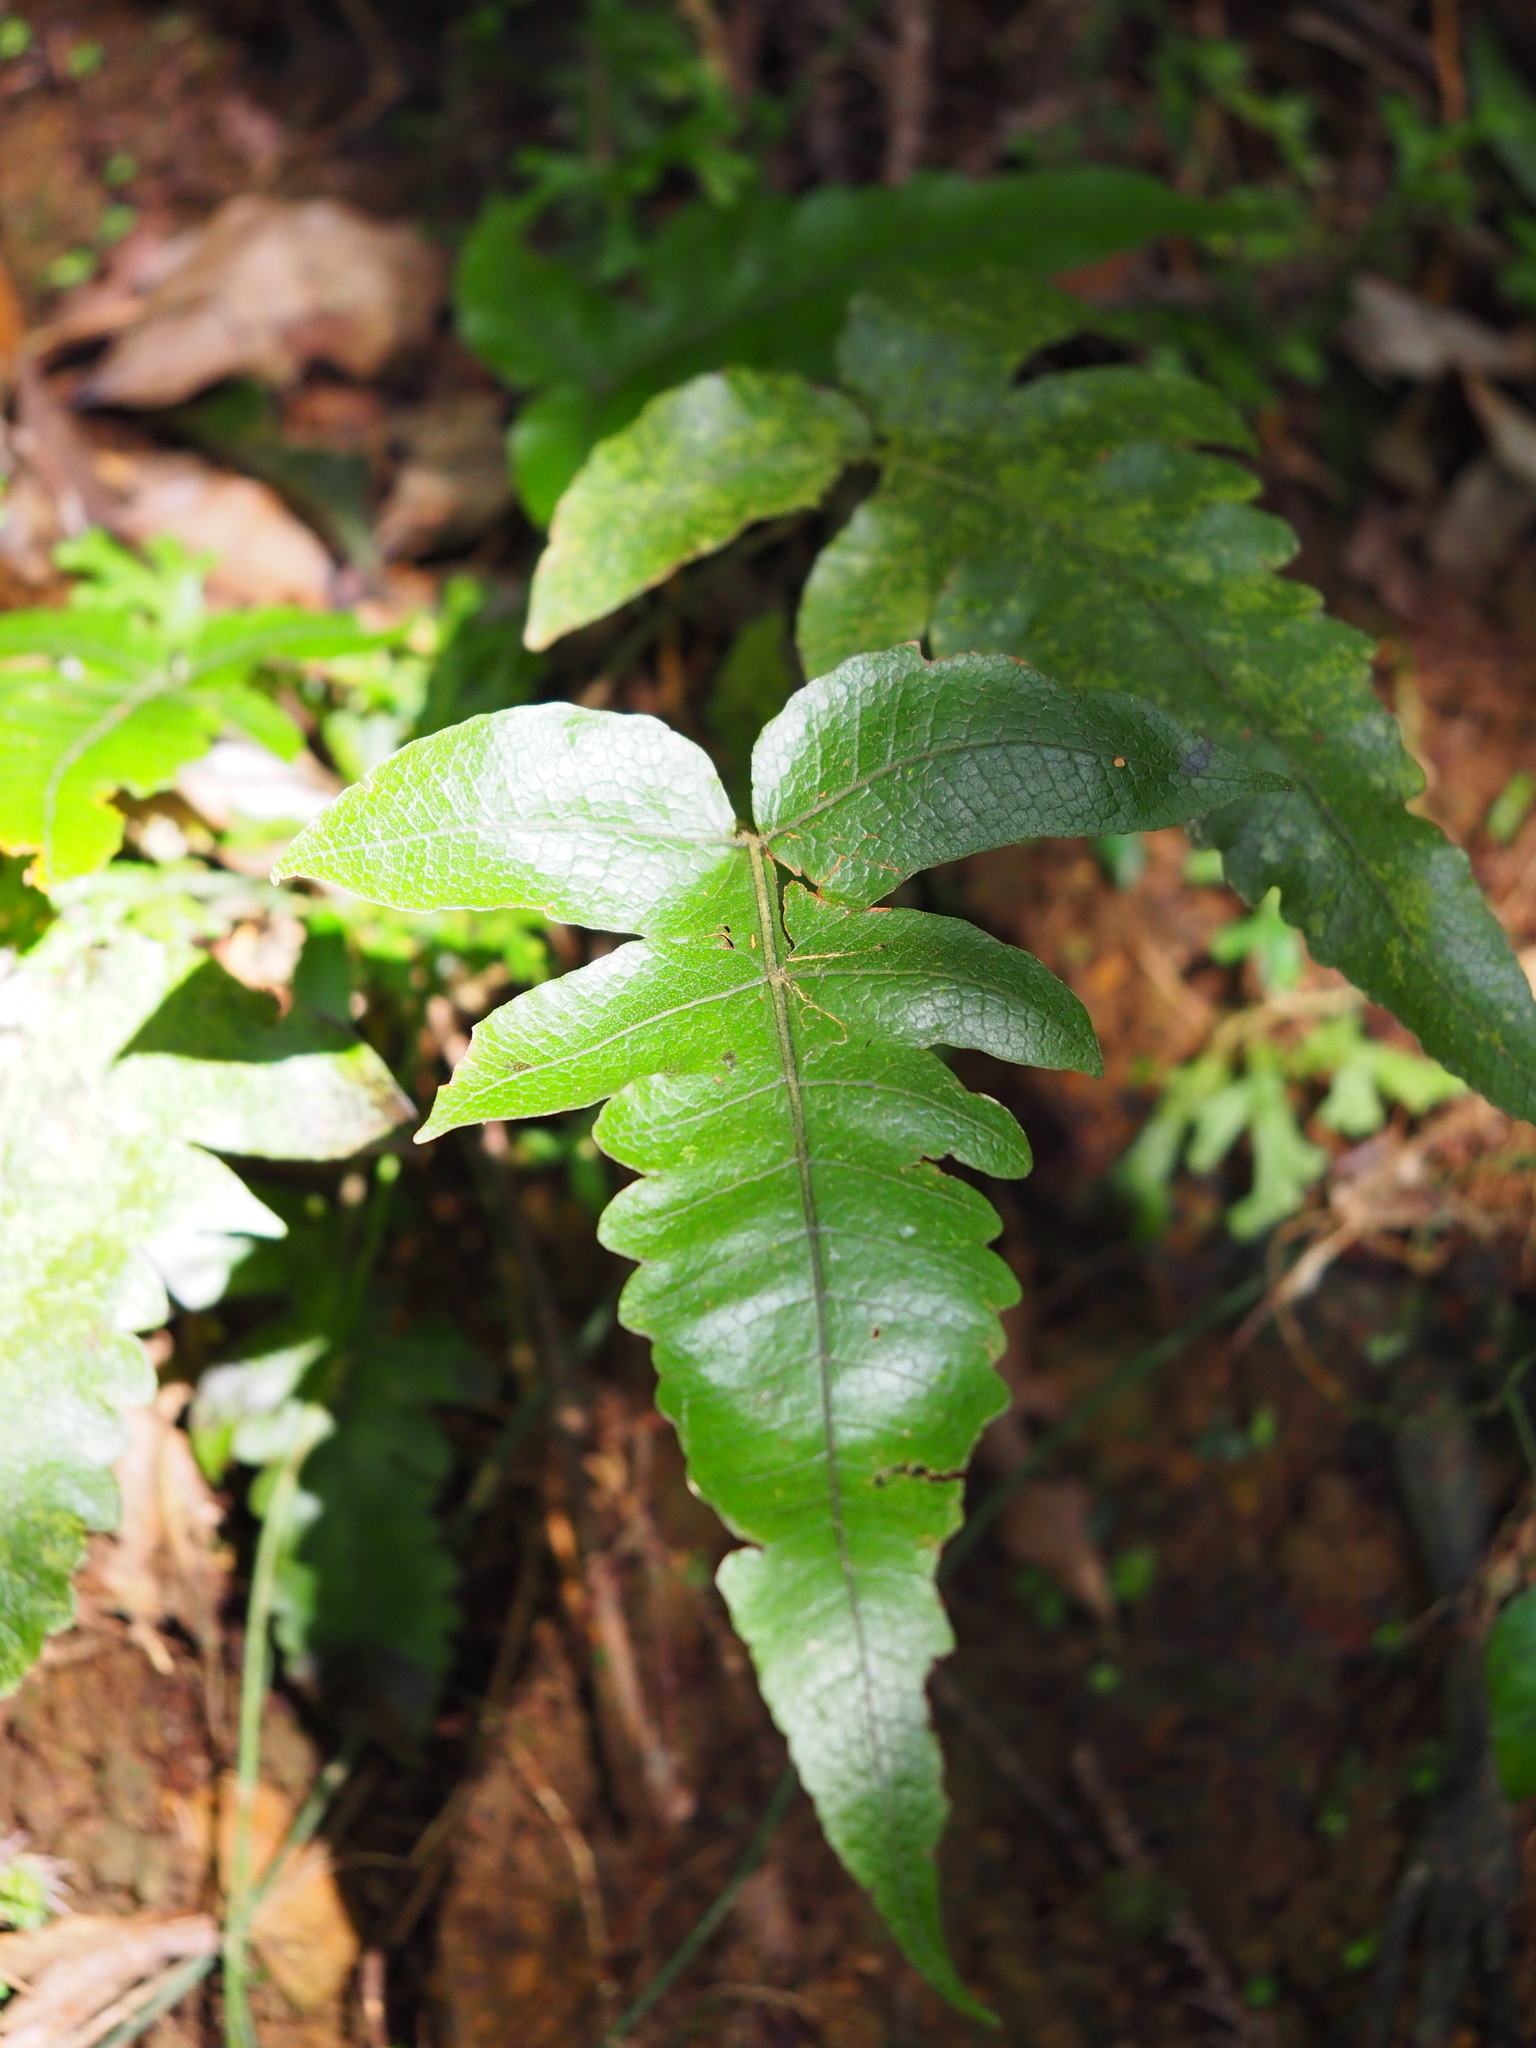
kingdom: Plantae
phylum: Tracheophyta
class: Polypodiopsida
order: Polypodiales
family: Thelypteridaceae
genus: Stegnogramma
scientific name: Stegnogramma wilfordii
